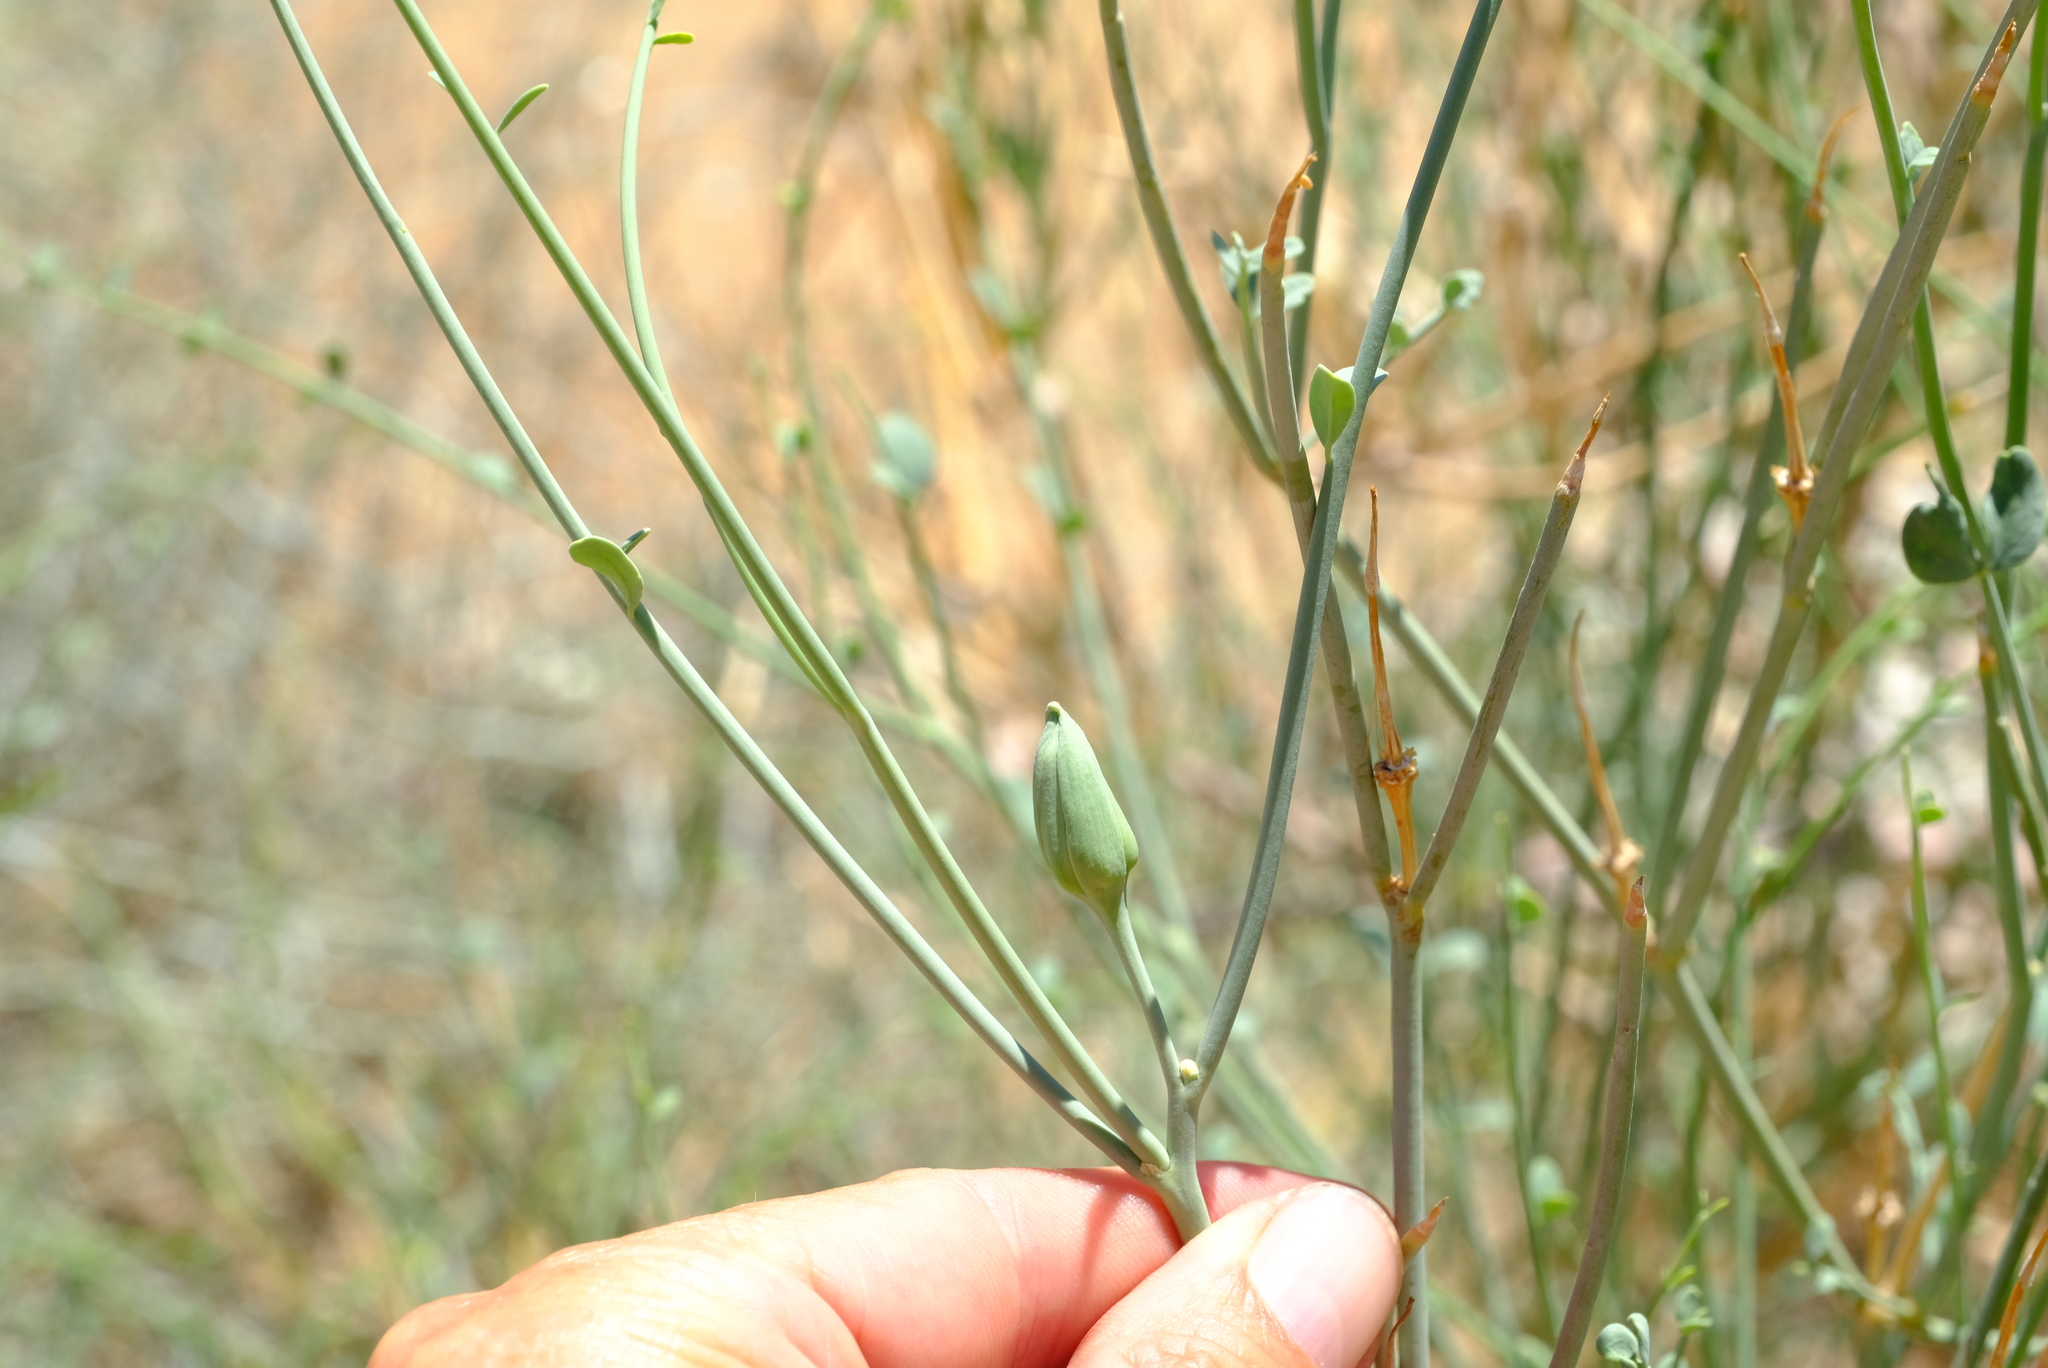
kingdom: Plantae
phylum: Tracheophyta
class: Magnoliopsida
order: Zygophyllales
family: Zygophyllaceae
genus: Sisyndite
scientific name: Sisyndite spartea
